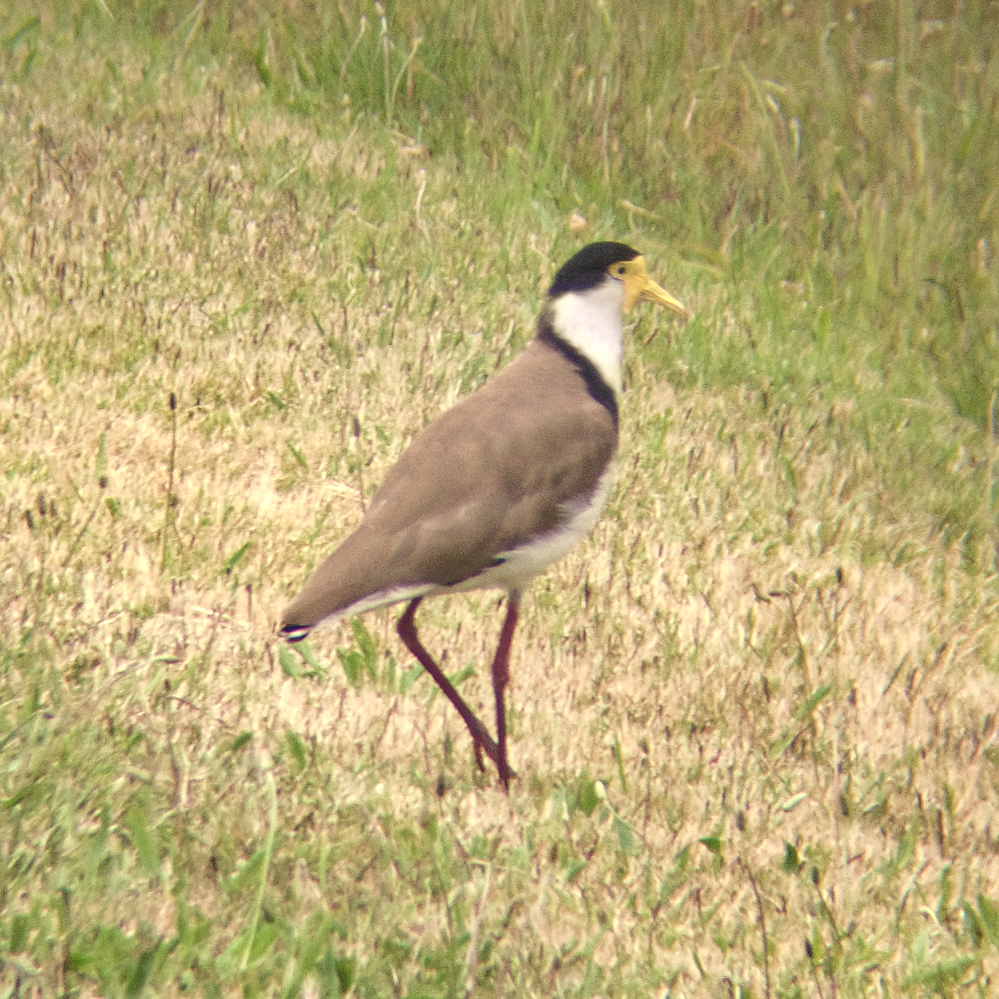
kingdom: Animalia
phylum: Chordata
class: Aves
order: Charadriiformes
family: Charadriidae
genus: Vanellus
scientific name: Vanellus miles
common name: Masked lapwing
